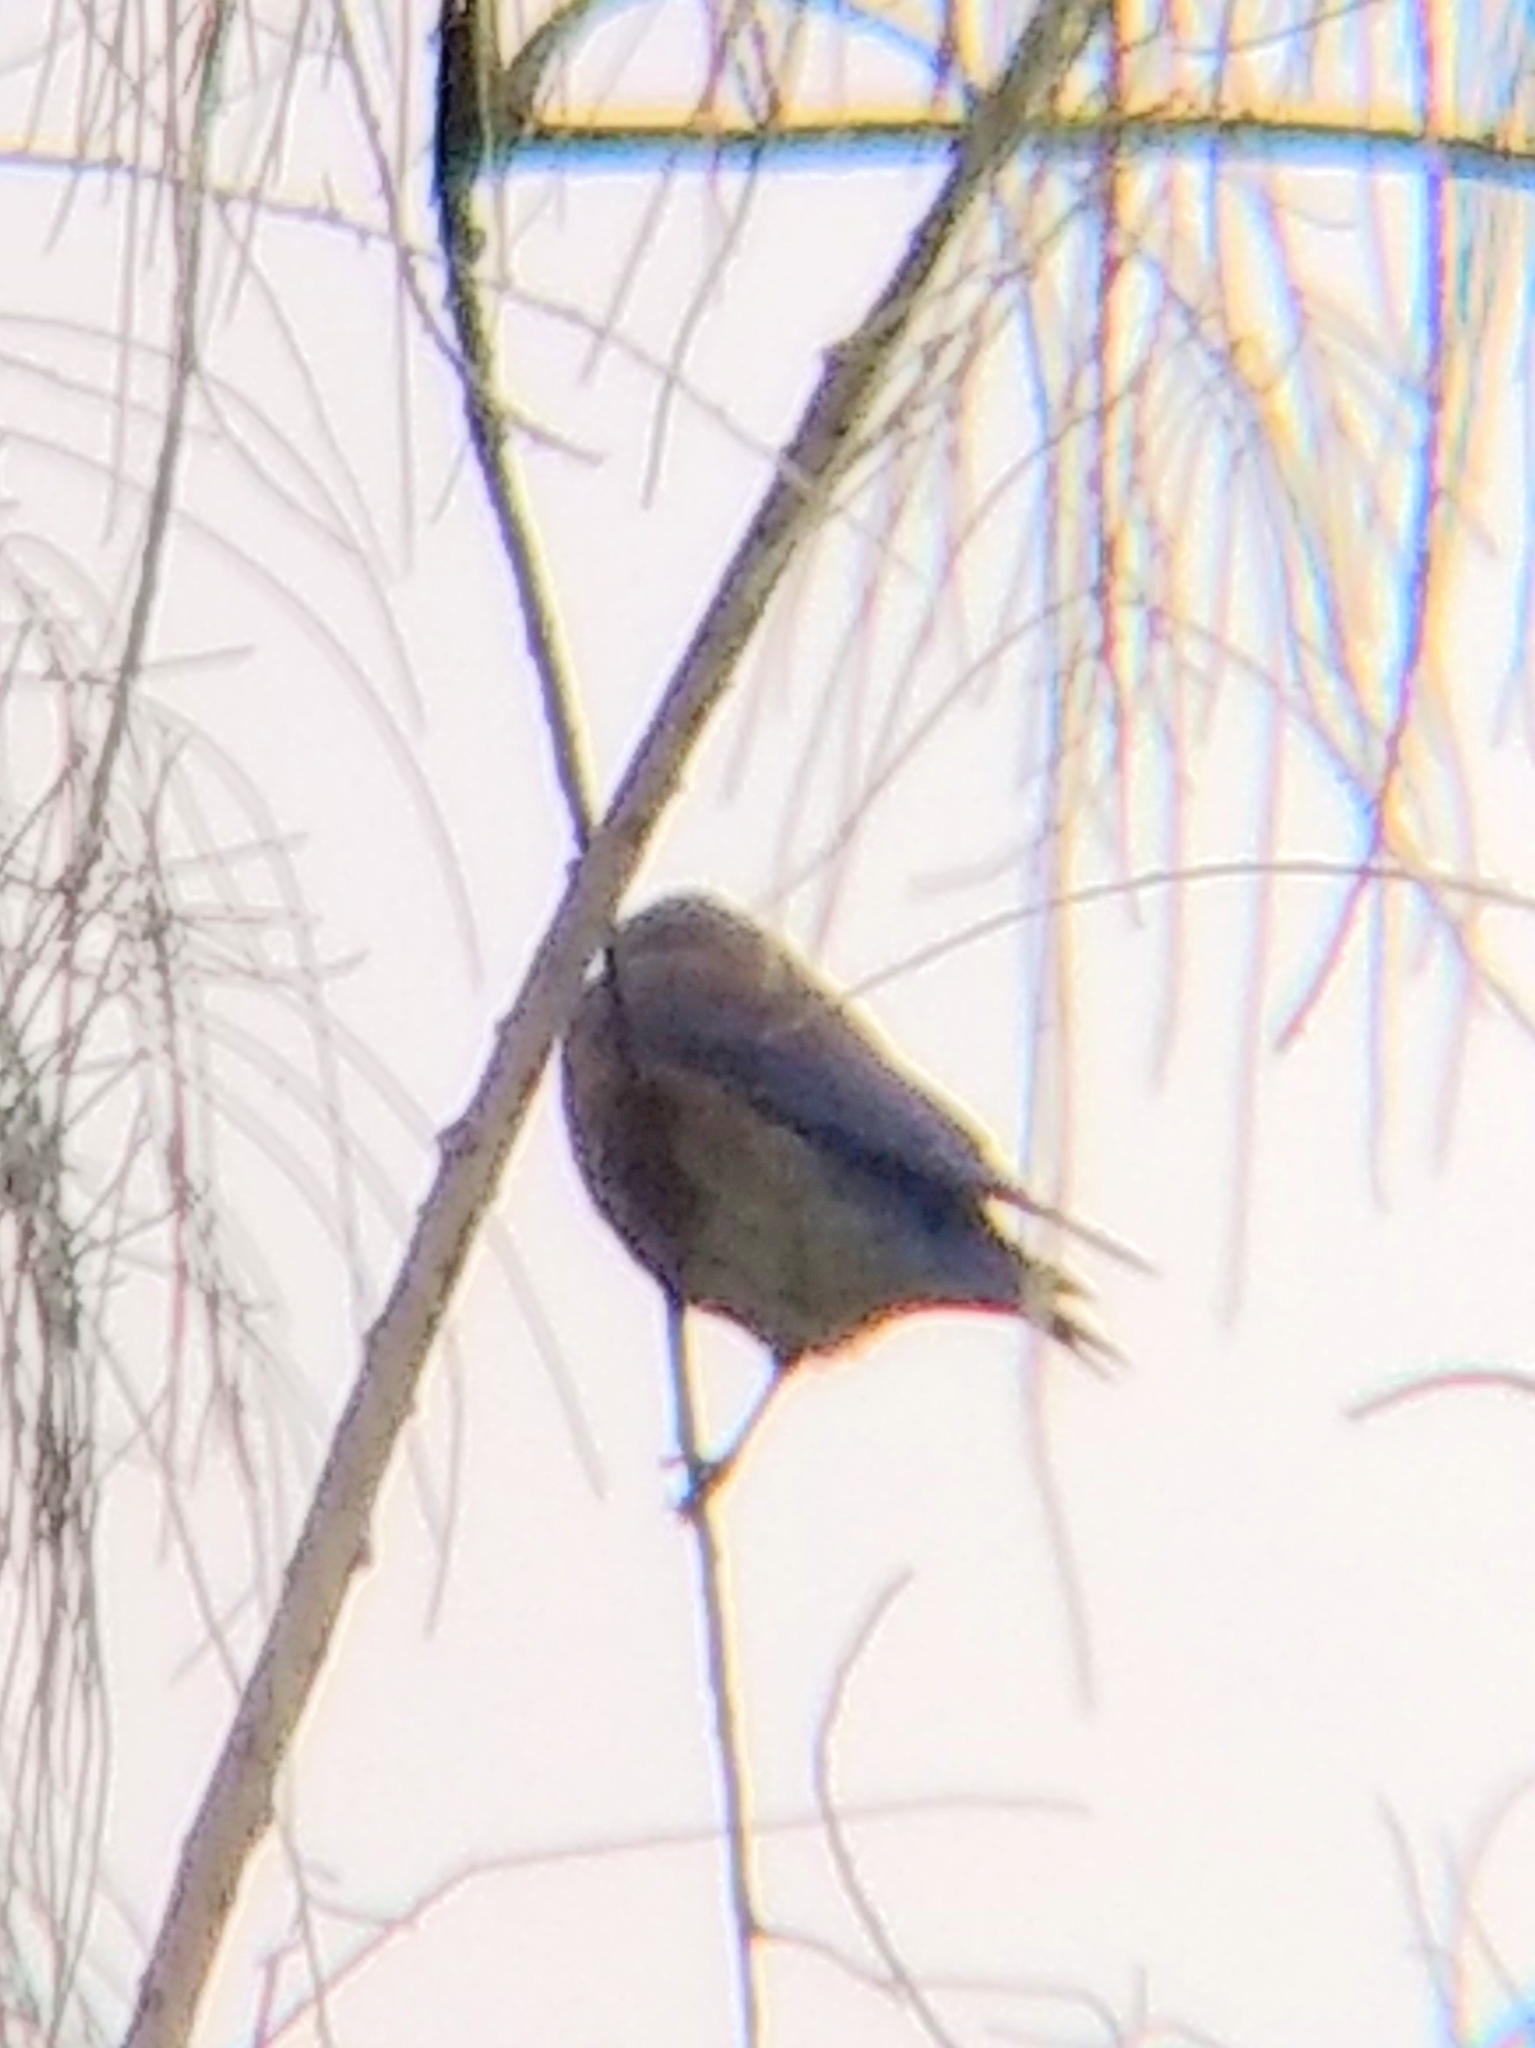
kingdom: Animalia
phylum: Chordata
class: Aves
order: Passeriformes
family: Turdidae
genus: Sialia
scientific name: Sialia mexicana
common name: Western bluebird
